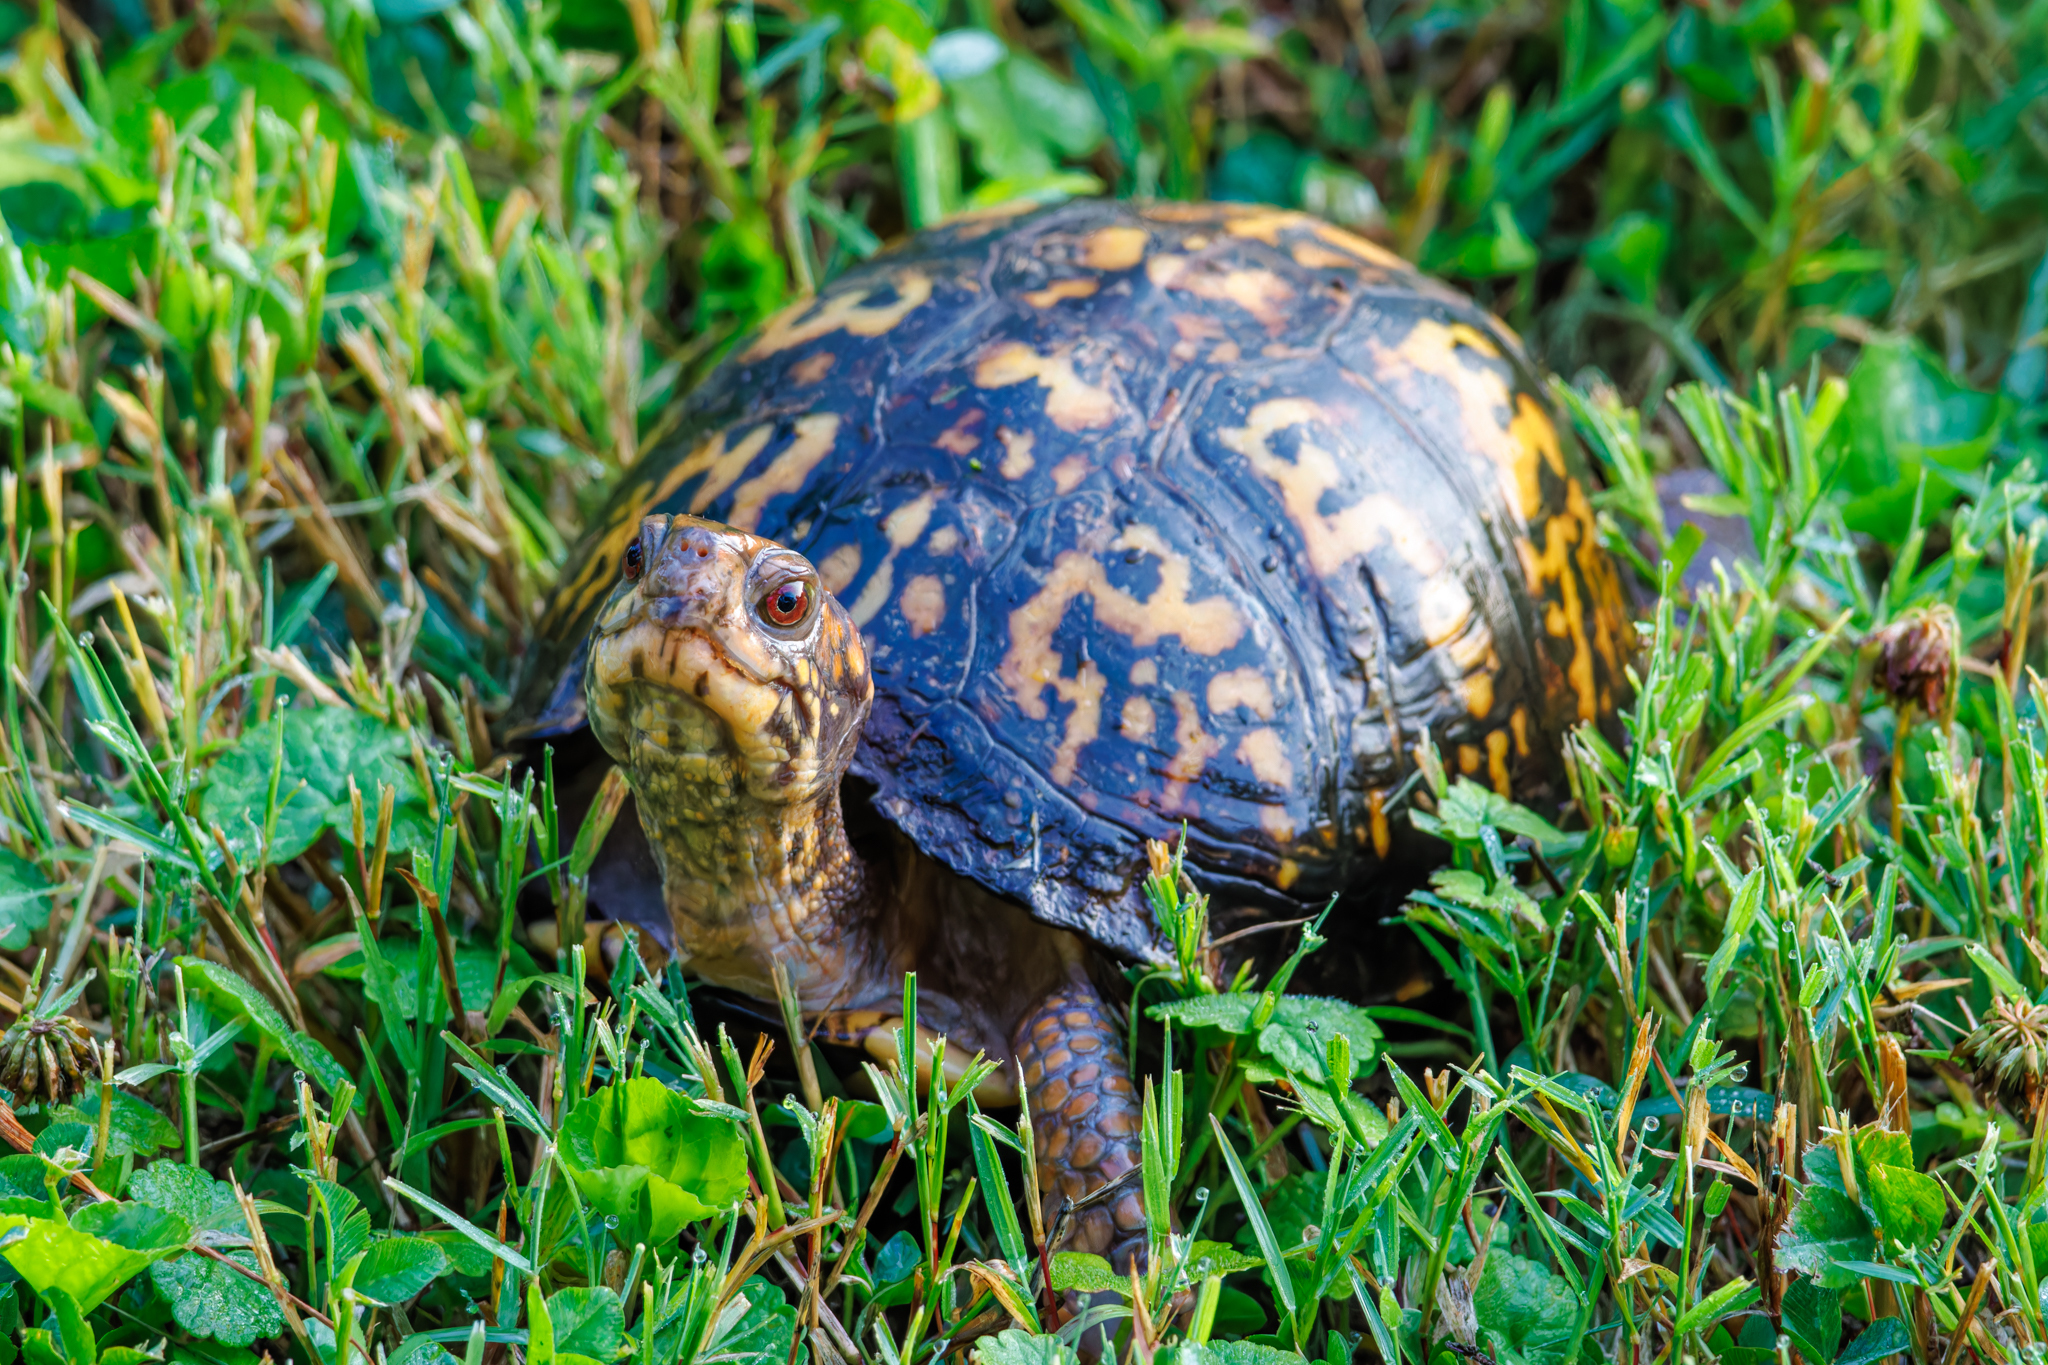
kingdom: Animalia
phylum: Chordata
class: Testudines
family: Emydidae
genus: Terrapene
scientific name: Terrapene carolina
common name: Common box turtle
